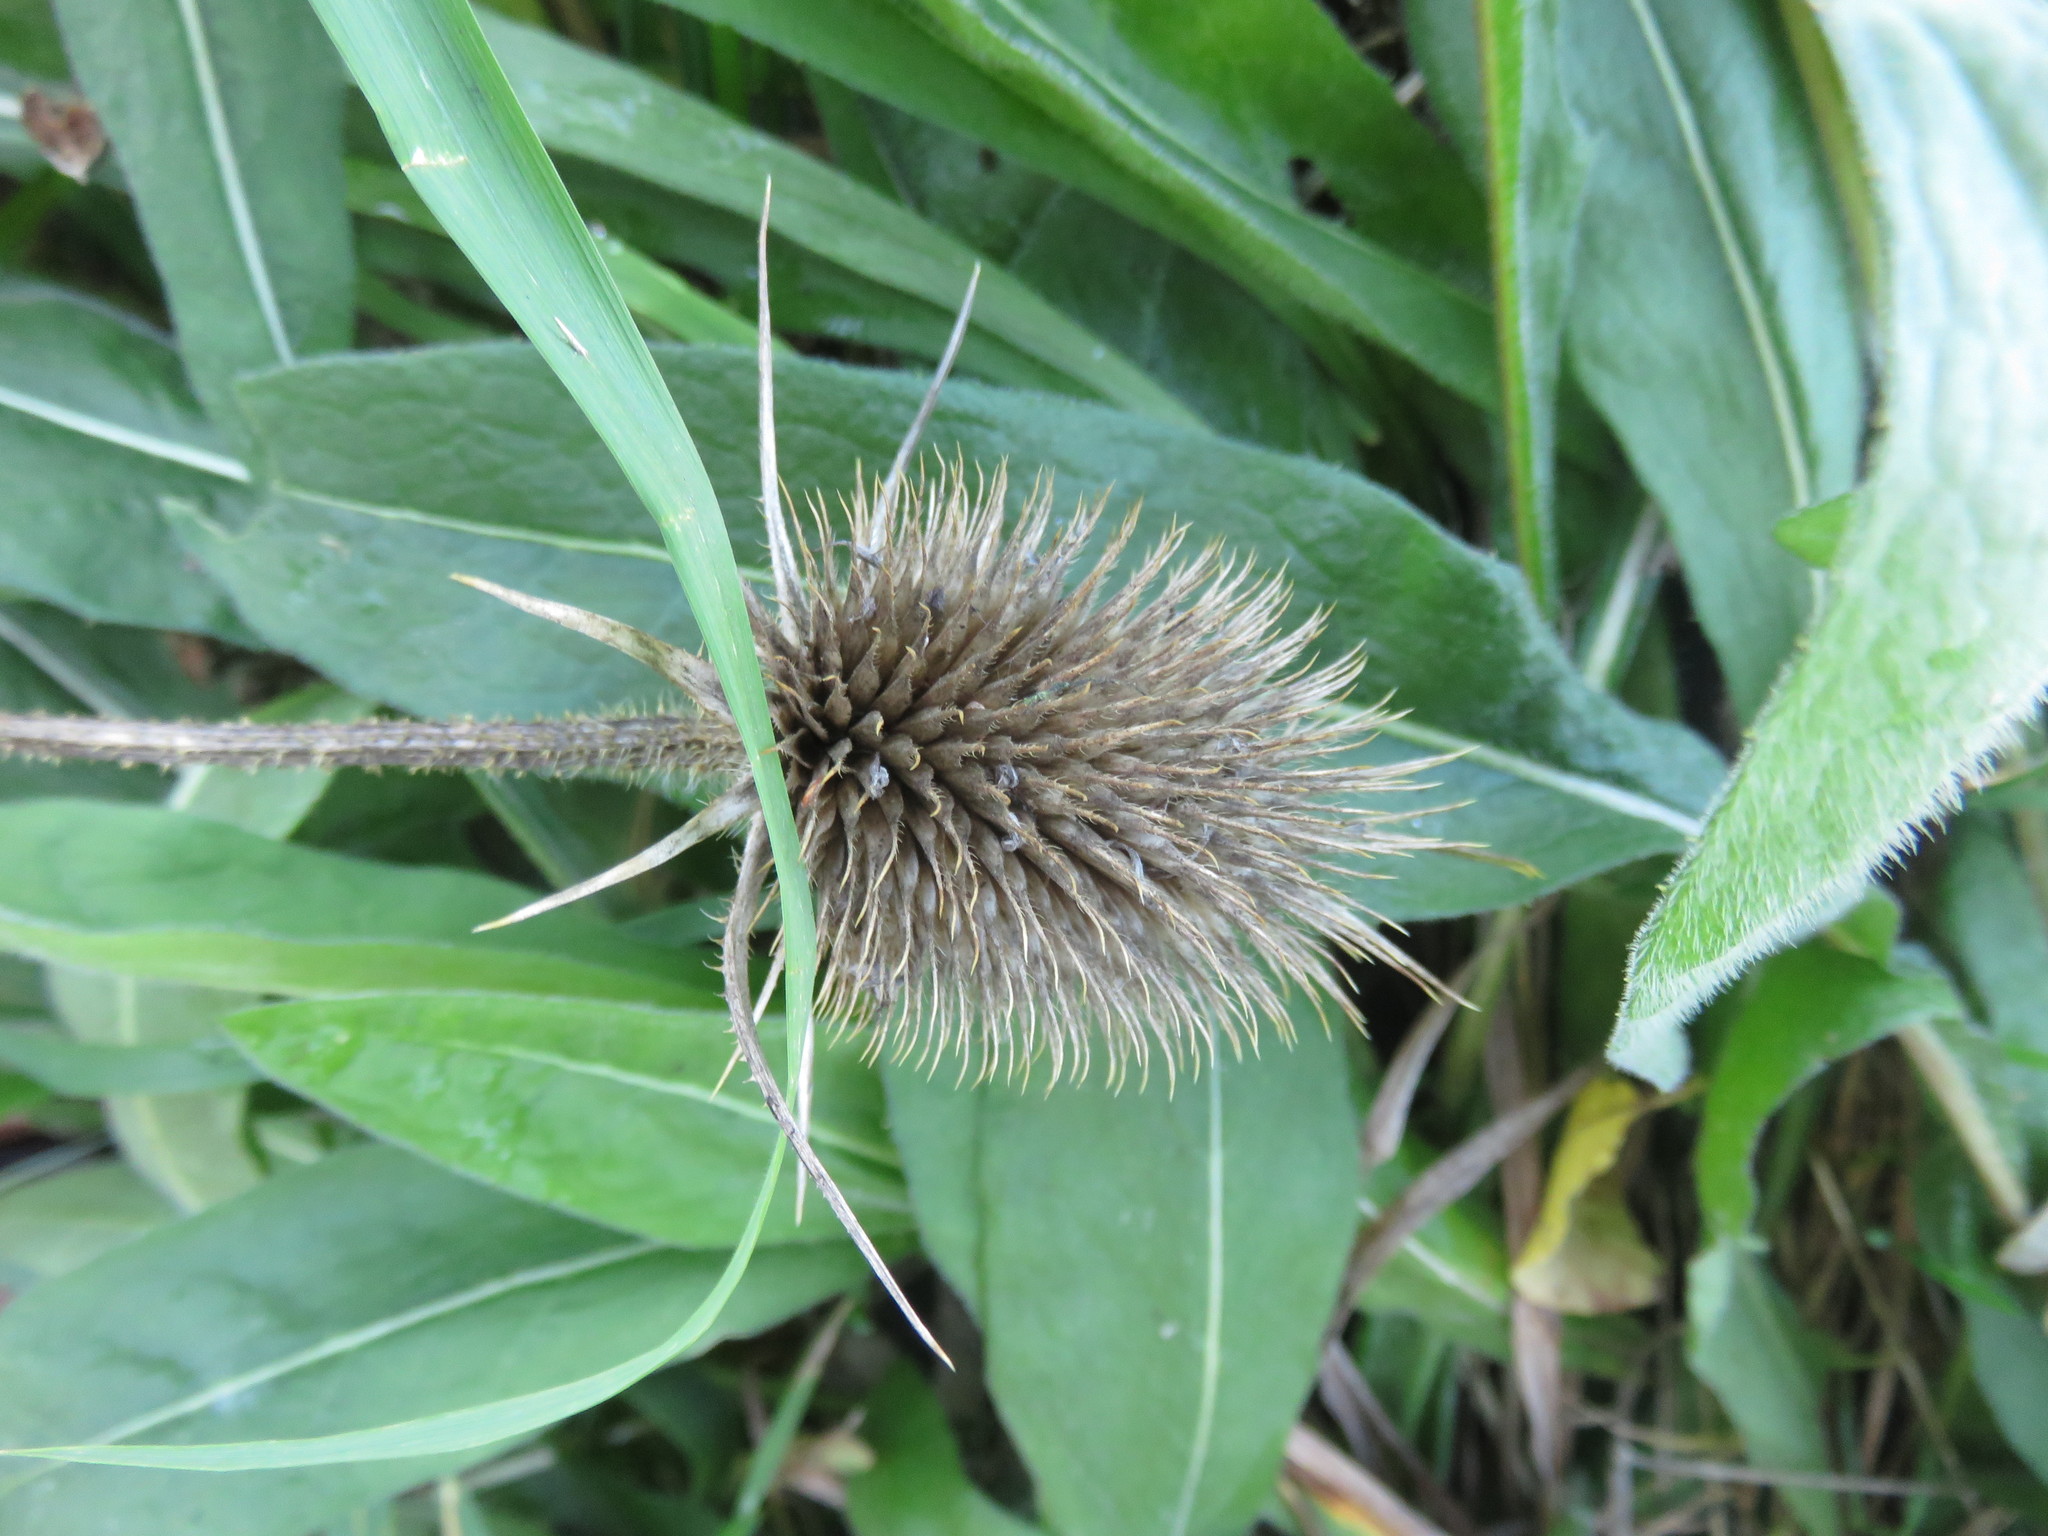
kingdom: Plantae
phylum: Tracheophyta
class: Magnoliopsida
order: Dipsacales
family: Caprifoliaceae
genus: Dipsacus
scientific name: Dipsacus fullonum
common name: Teasel
